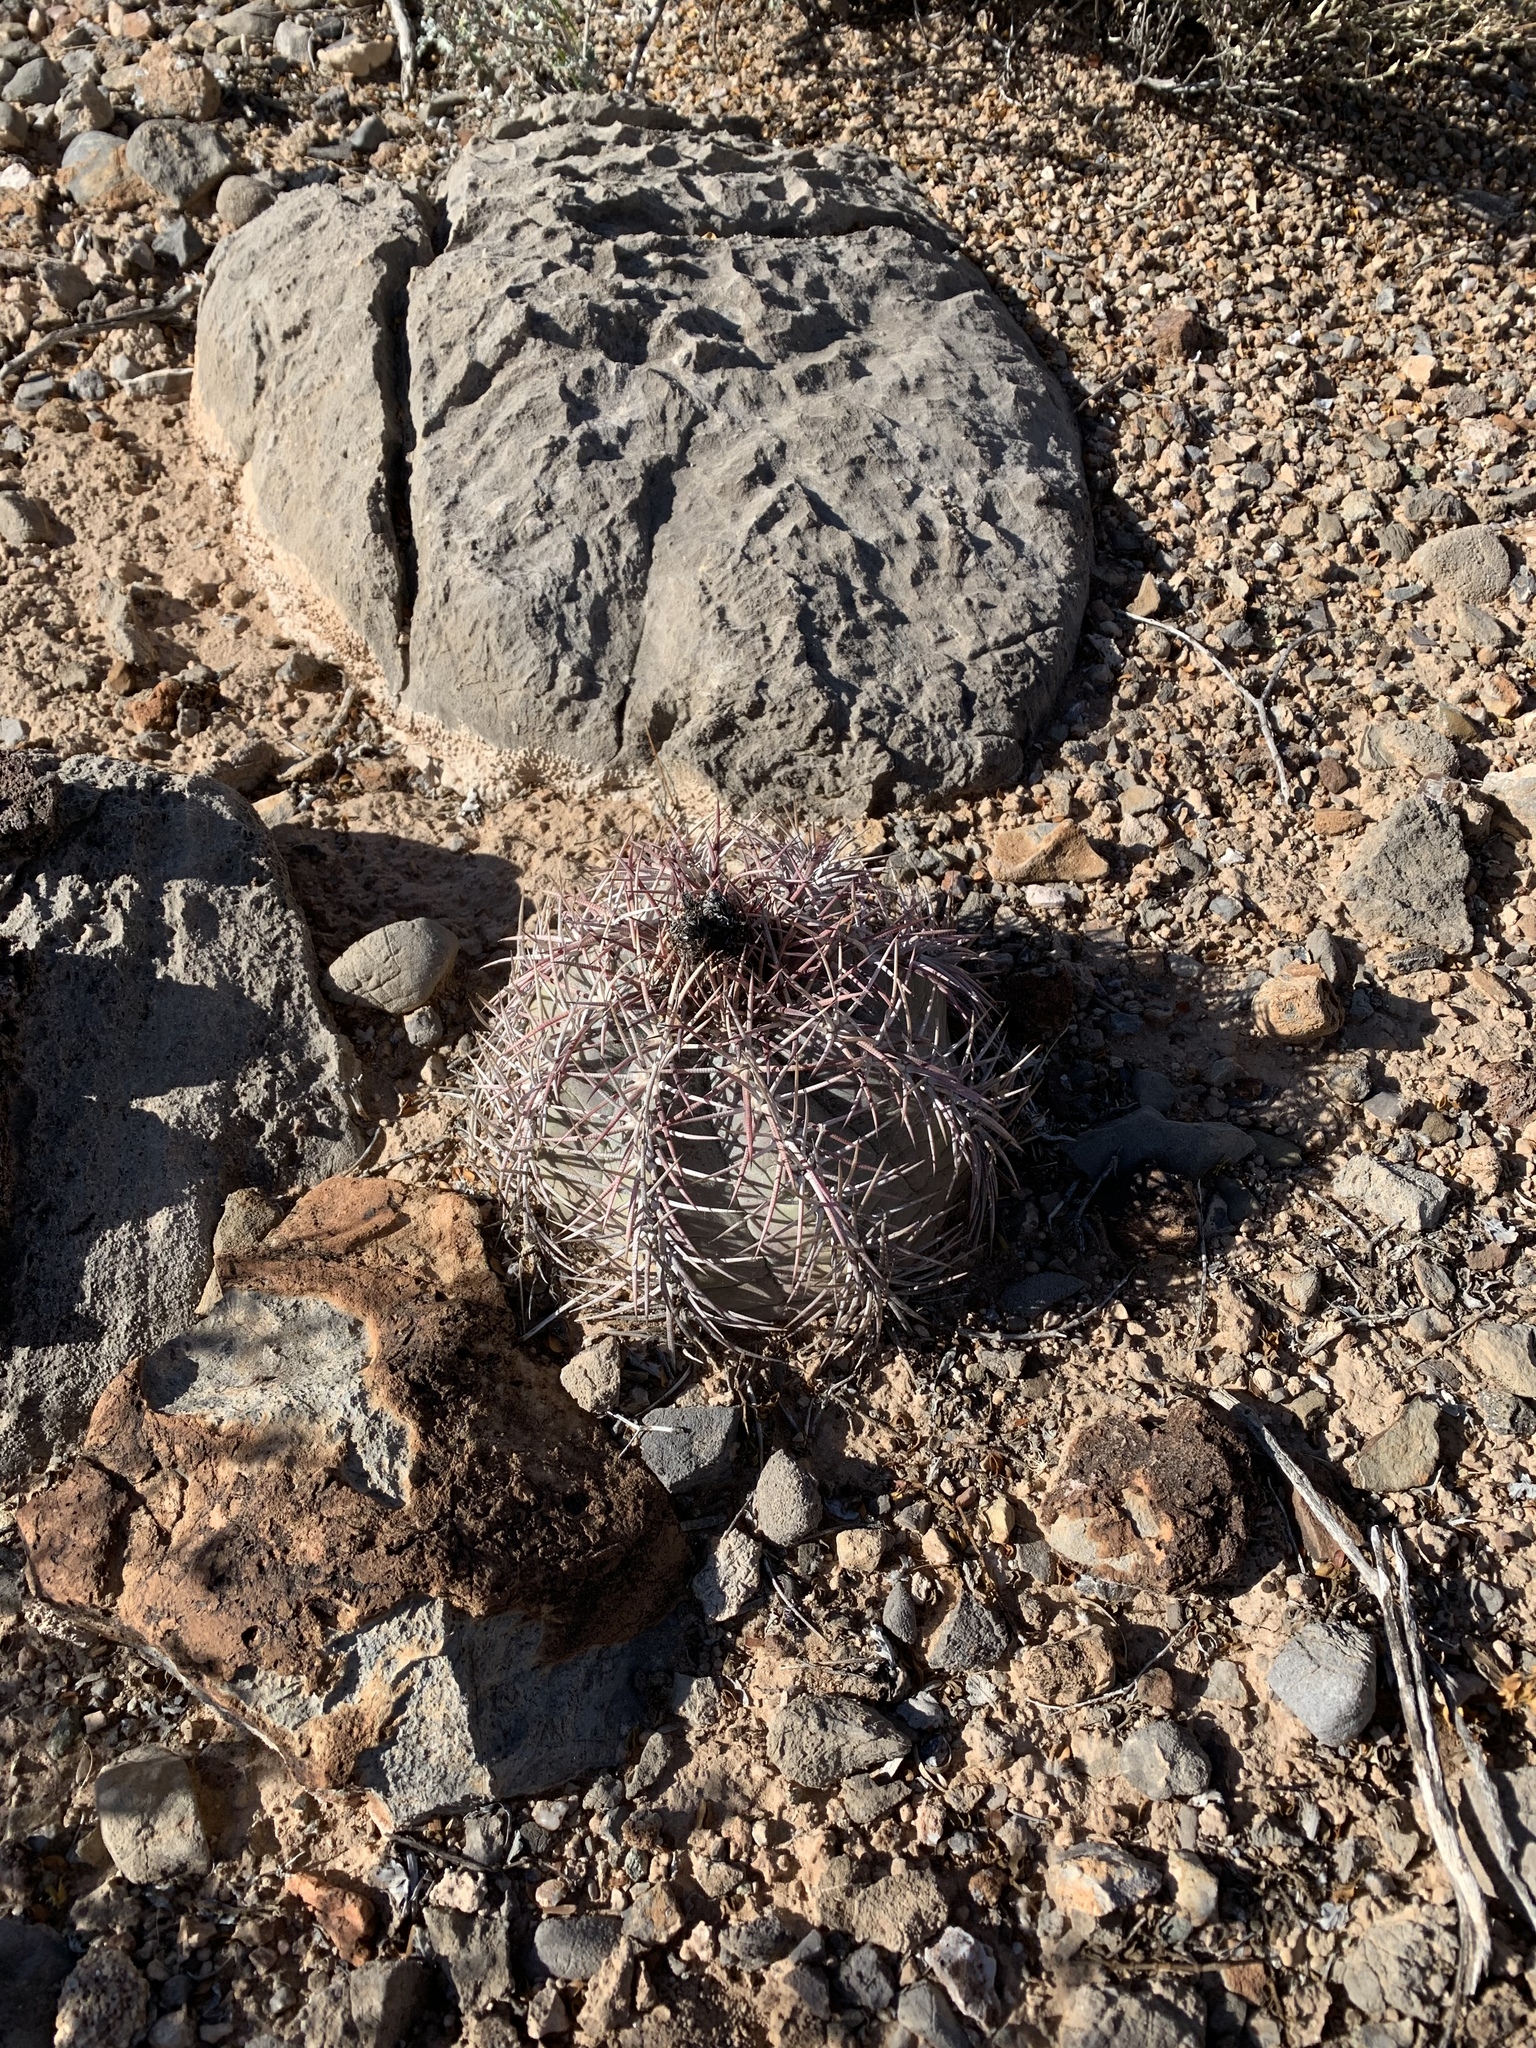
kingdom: Plantae
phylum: Tracheophyta
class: Magnoliopsida
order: Caryophyllales
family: Cactaceae
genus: Echinocactus
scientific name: Echinocactus horizonthalonius
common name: Devilshead
